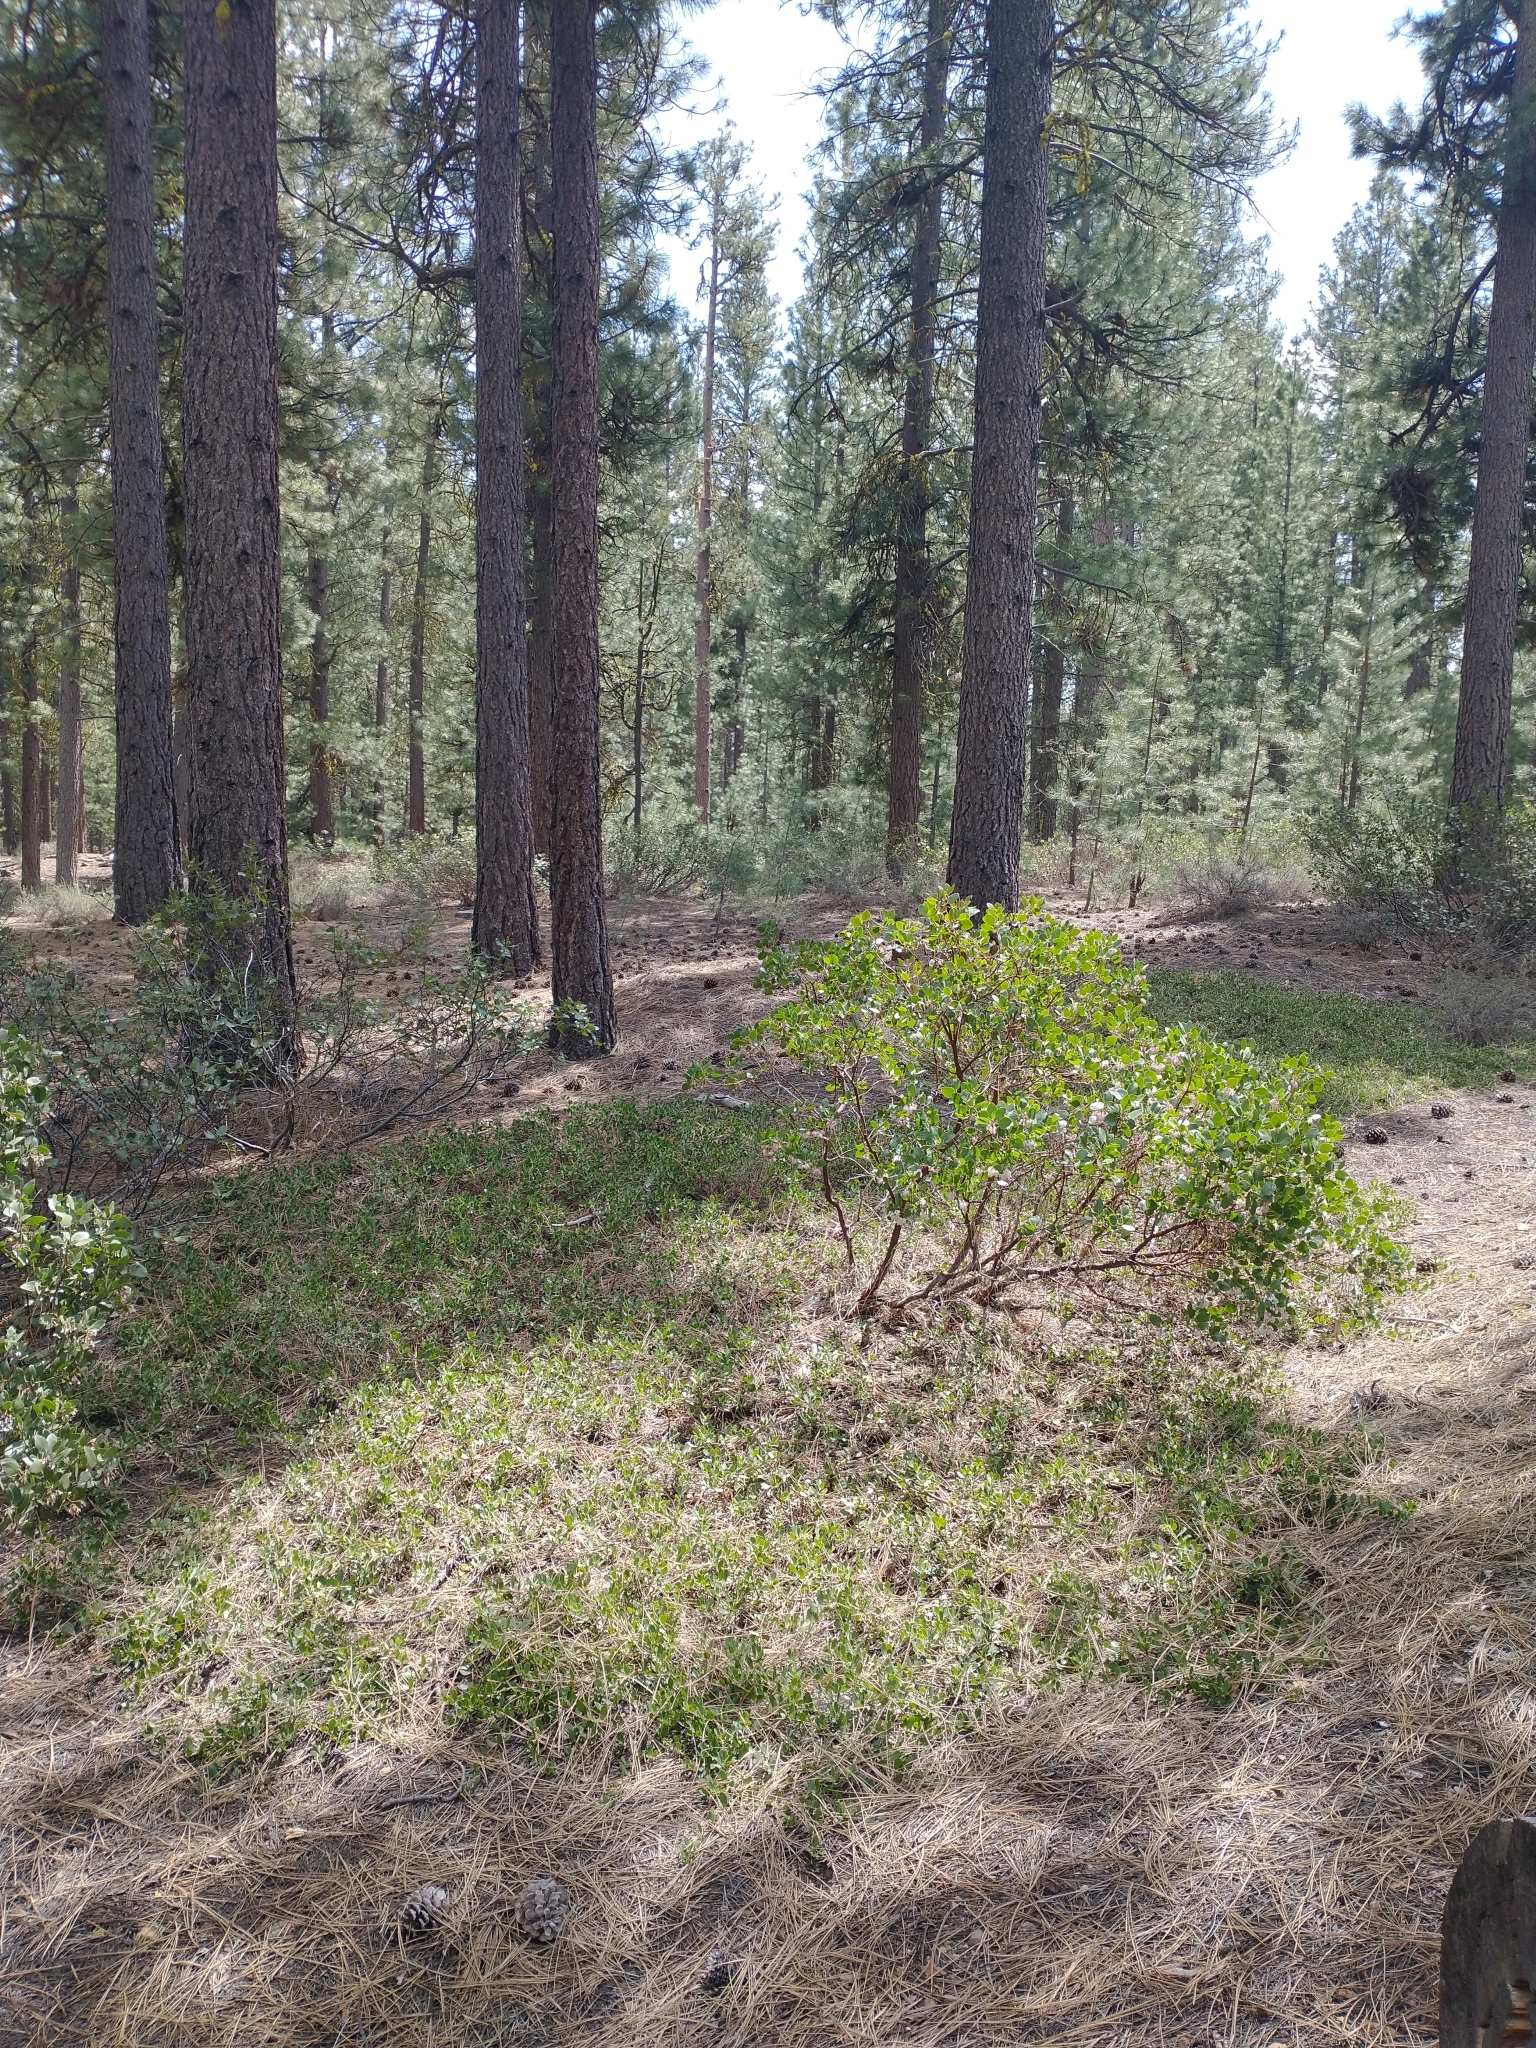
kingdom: Plantae
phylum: Tracheophyta
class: Magnoliopsida
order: Ericales
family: Ericaceae
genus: Arctostaphylos
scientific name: Arctostaphylos nevadensis
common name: Pinemat manzanita
